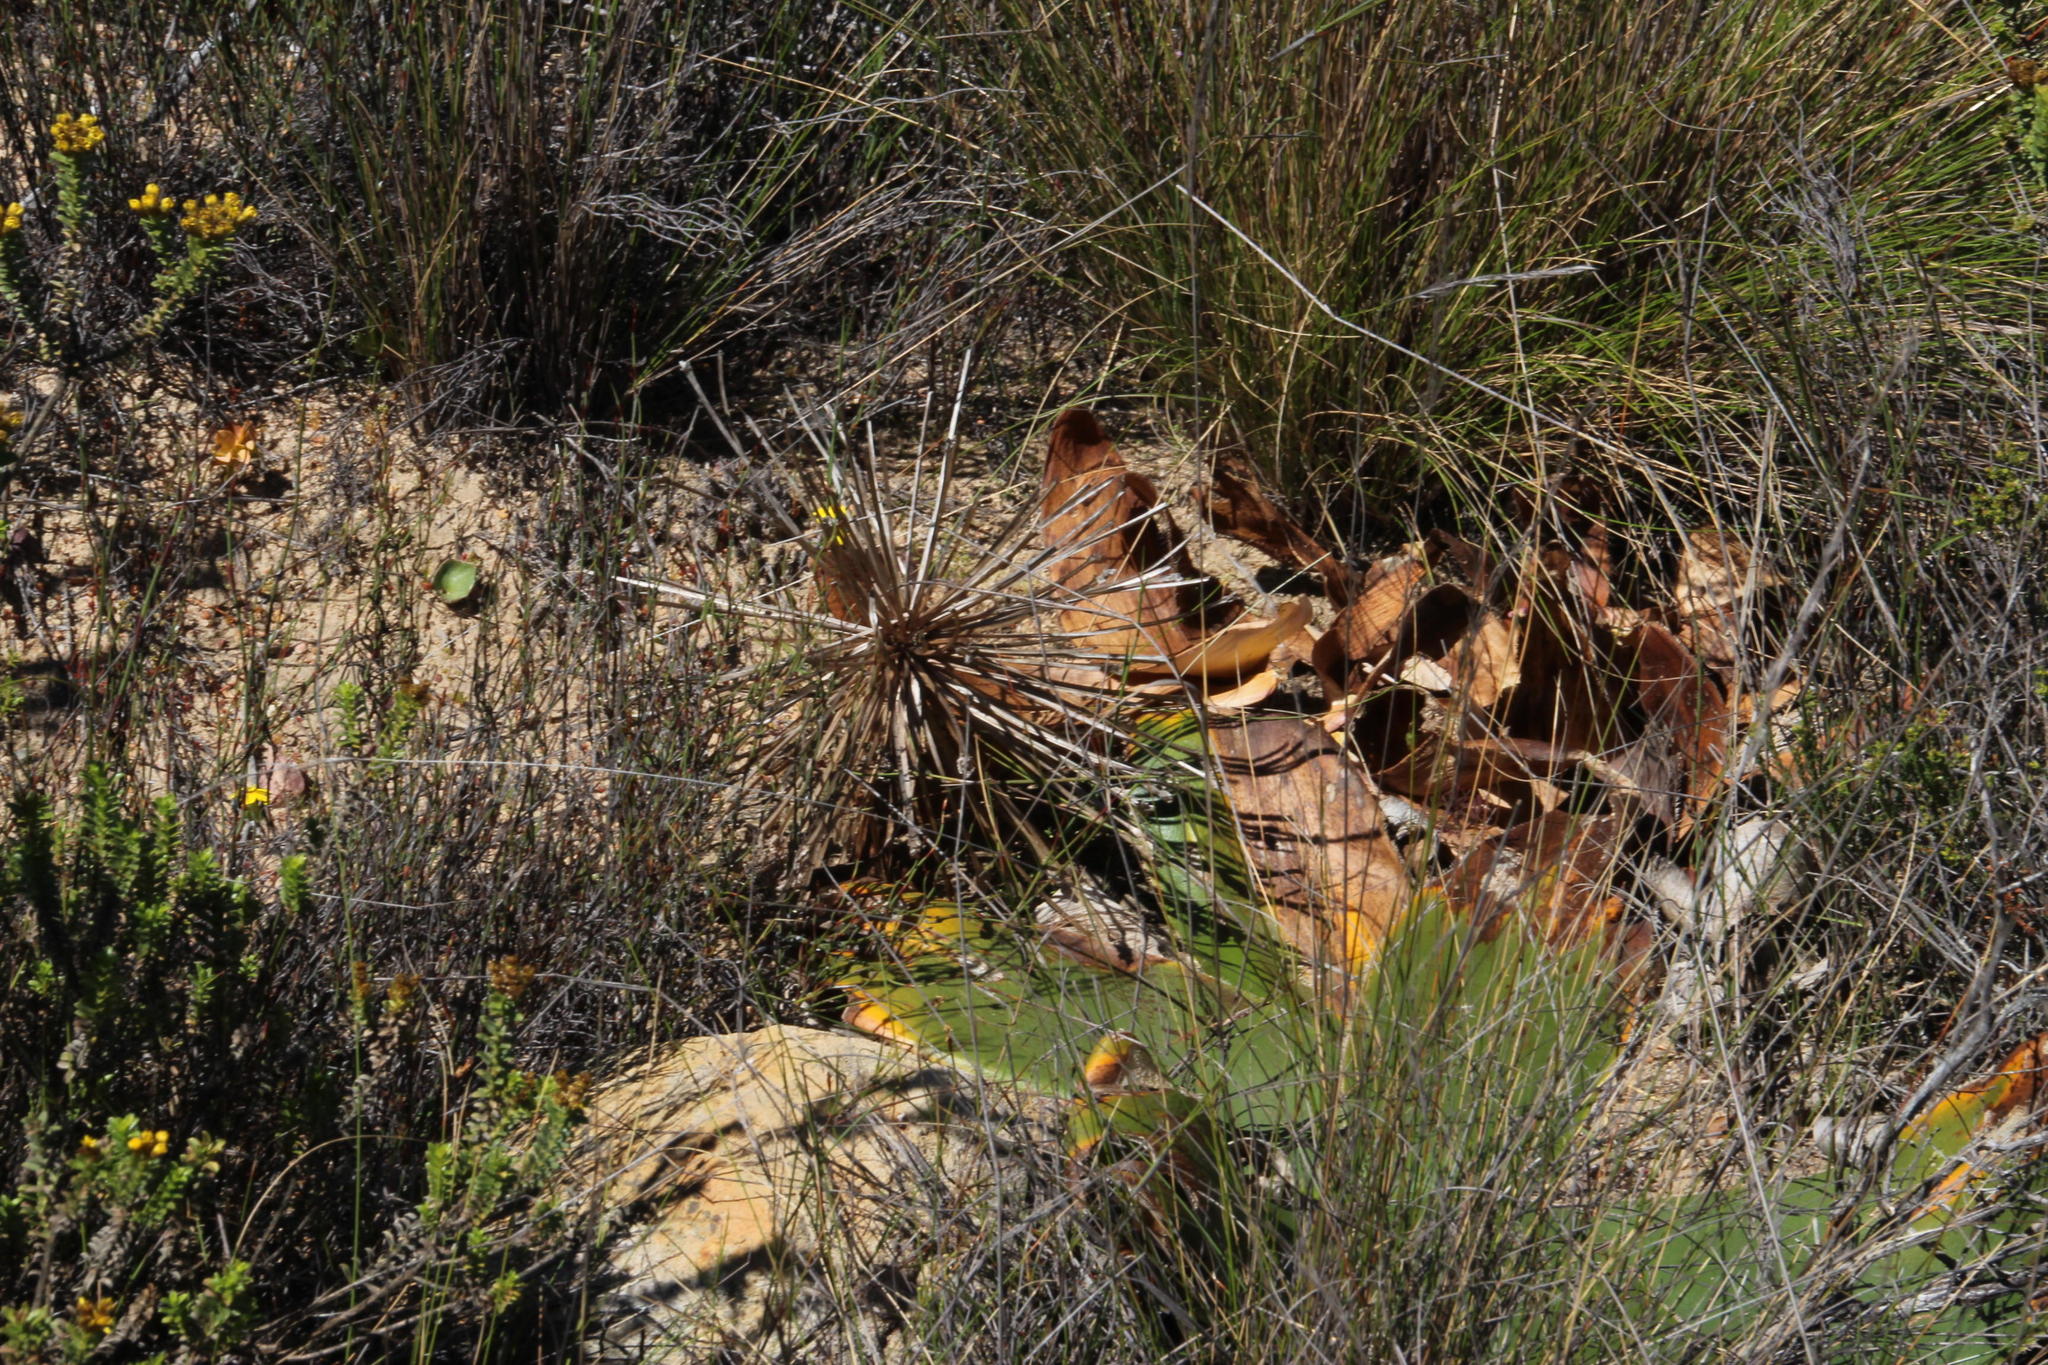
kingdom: Plantae
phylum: Tracheophyta
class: Liliopsida
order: Asparagales
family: Amaryllidaceae
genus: Crossyne
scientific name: Crossyne guttata
